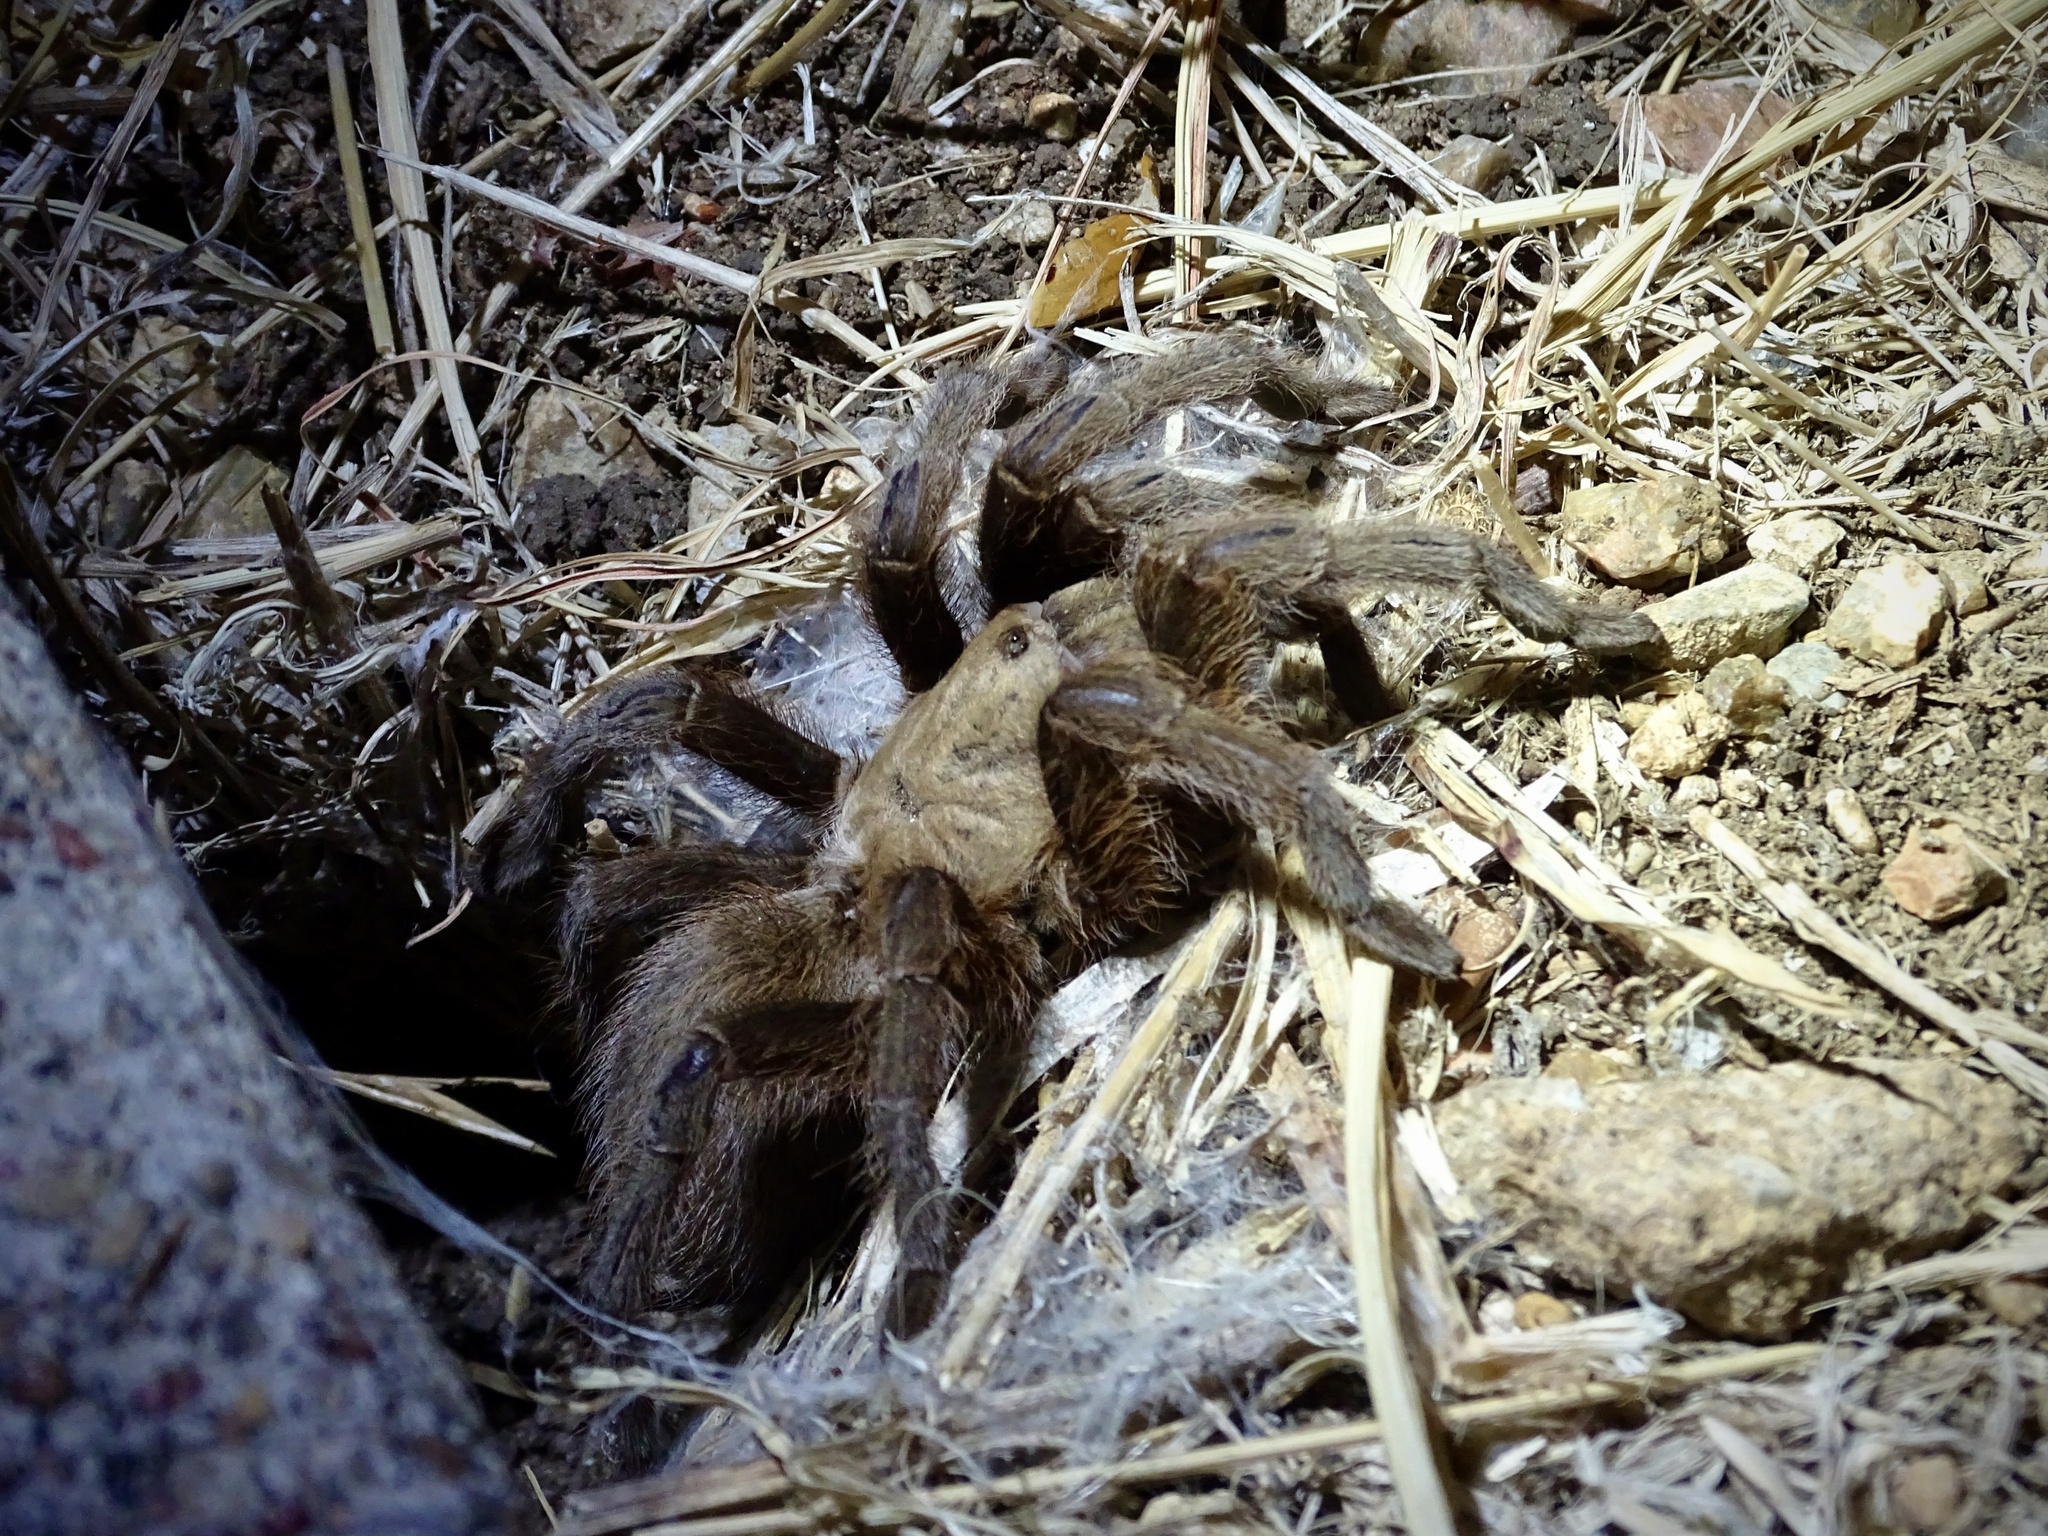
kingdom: Animalia
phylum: Arthropoda
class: Arachnida
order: Araneae
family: Theraphosidae
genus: Aphonopelma
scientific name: Aphonopelma hentzi
